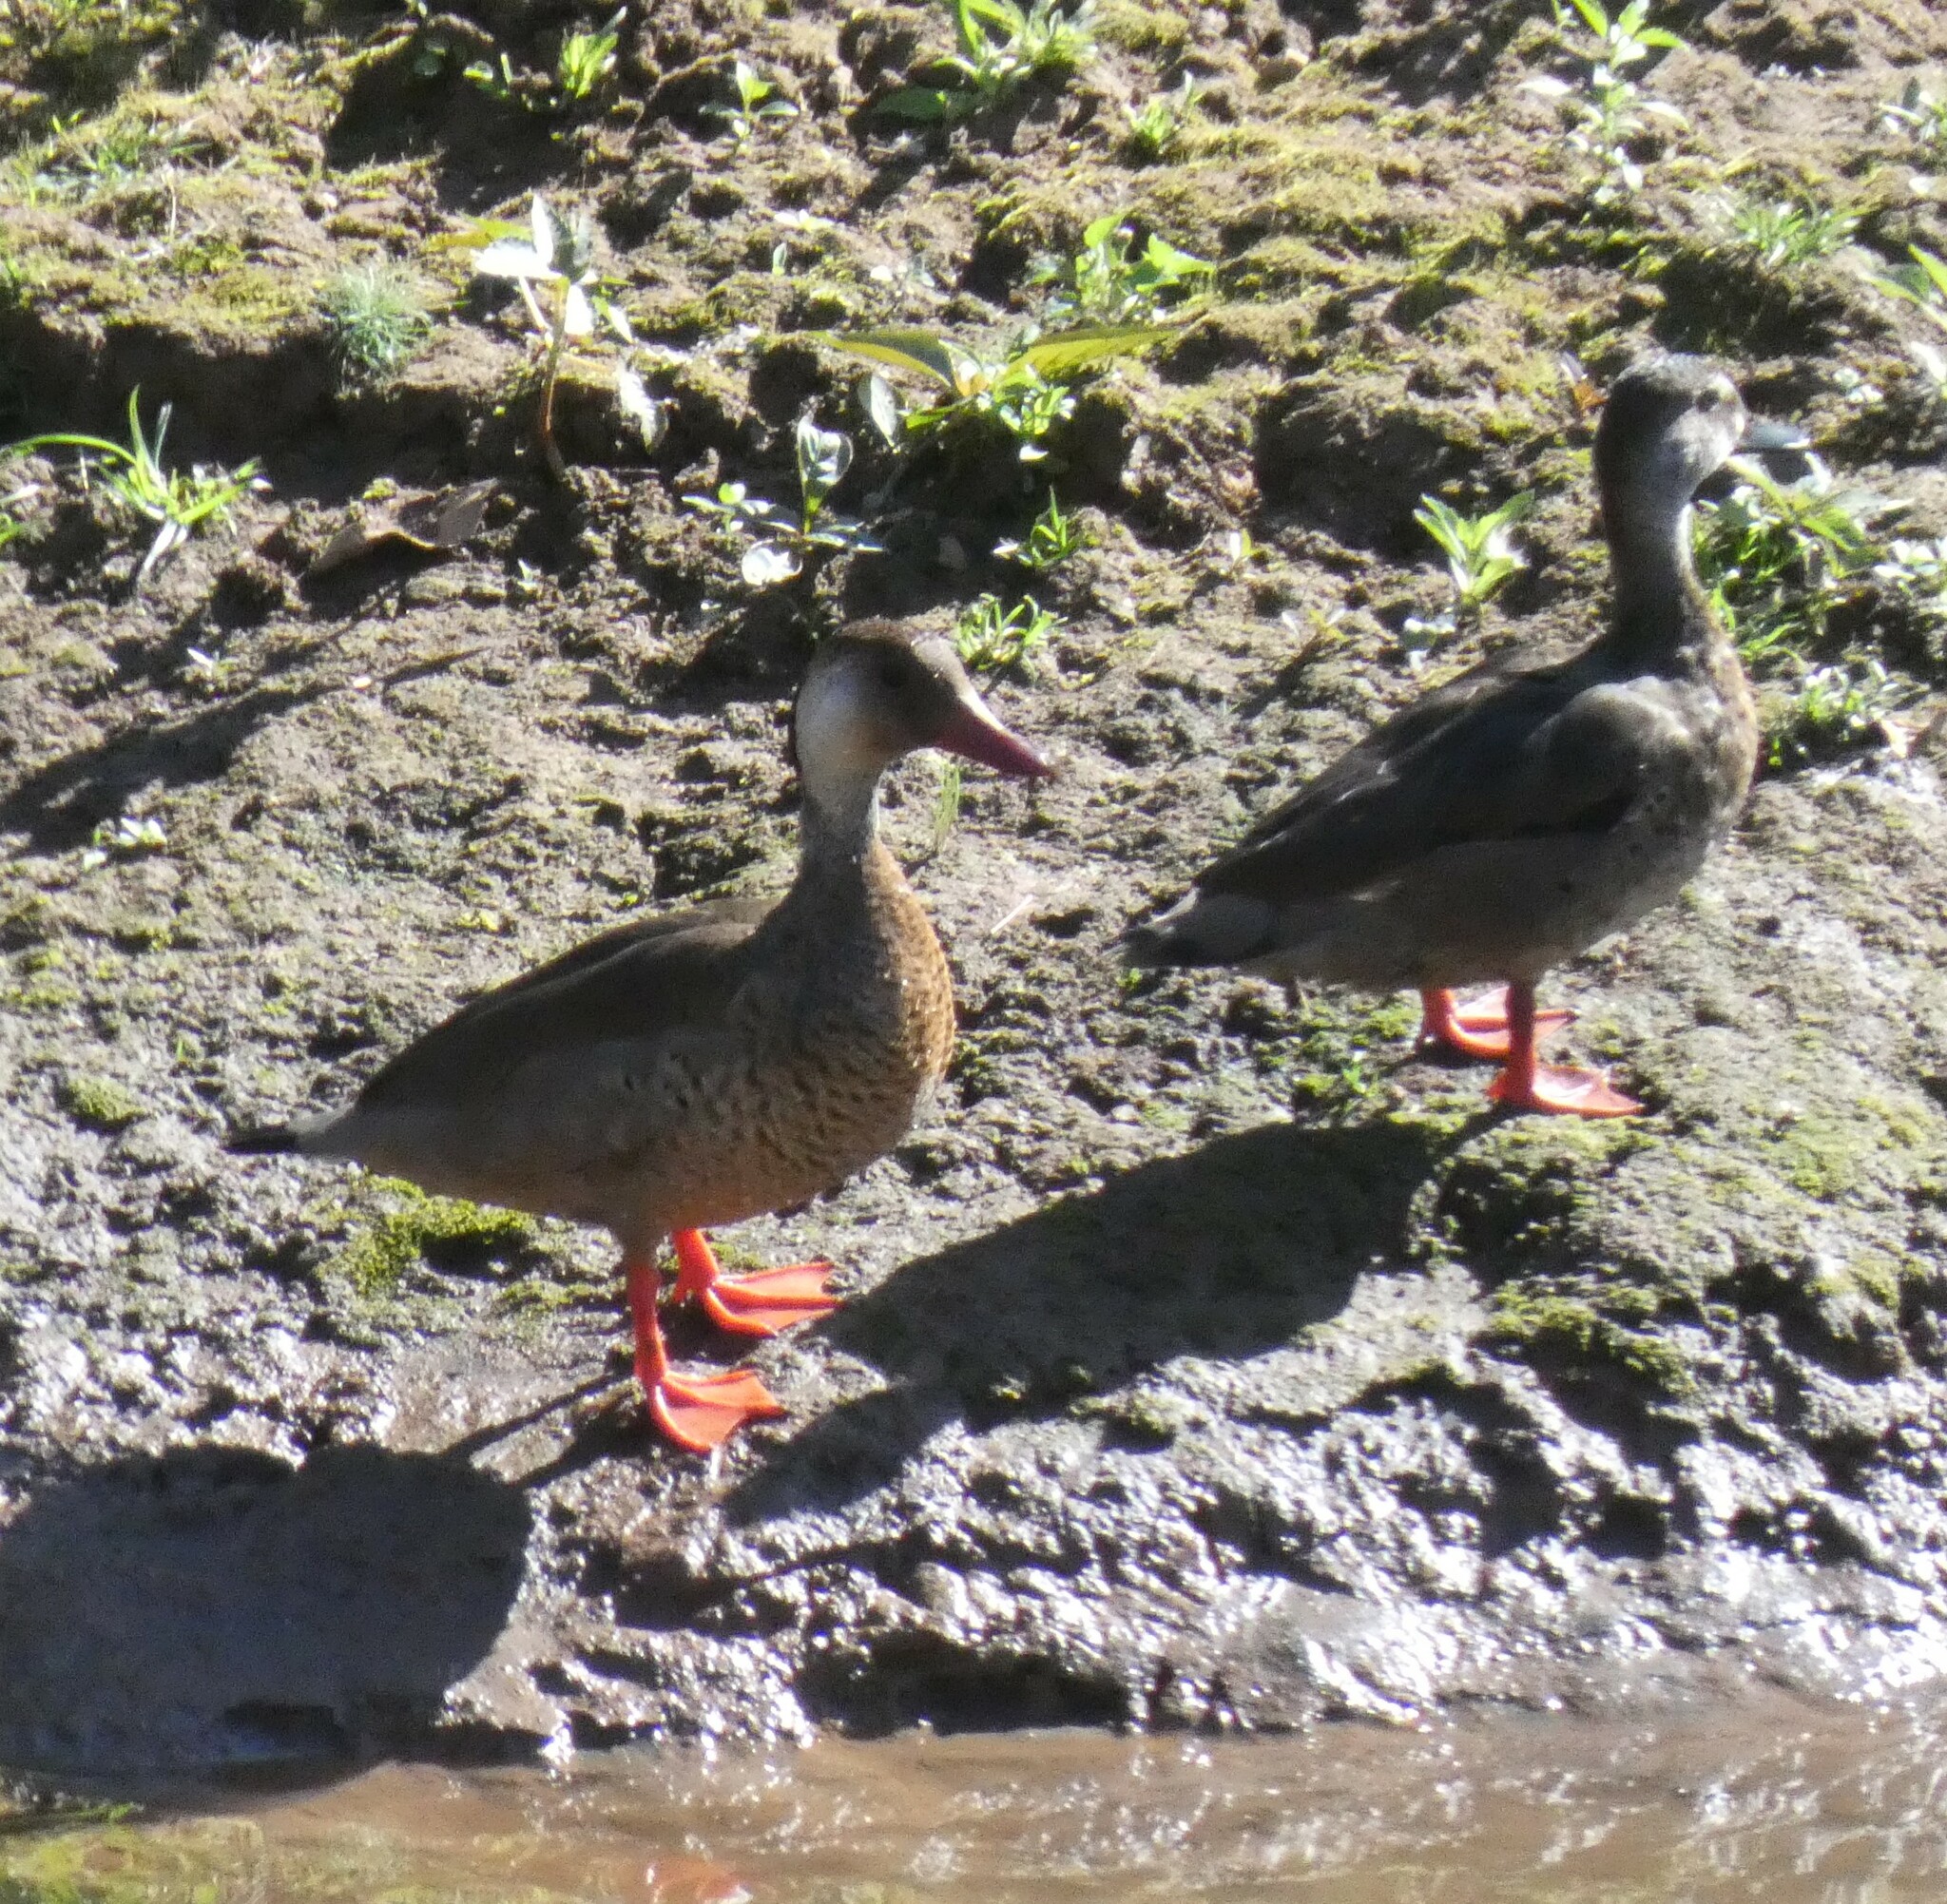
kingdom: Animalia
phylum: Chordata
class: Aves
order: Anseriformes
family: Anatidae
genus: Amazonetta
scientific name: Amazonetta brasiliensis
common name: Brazilian teal
